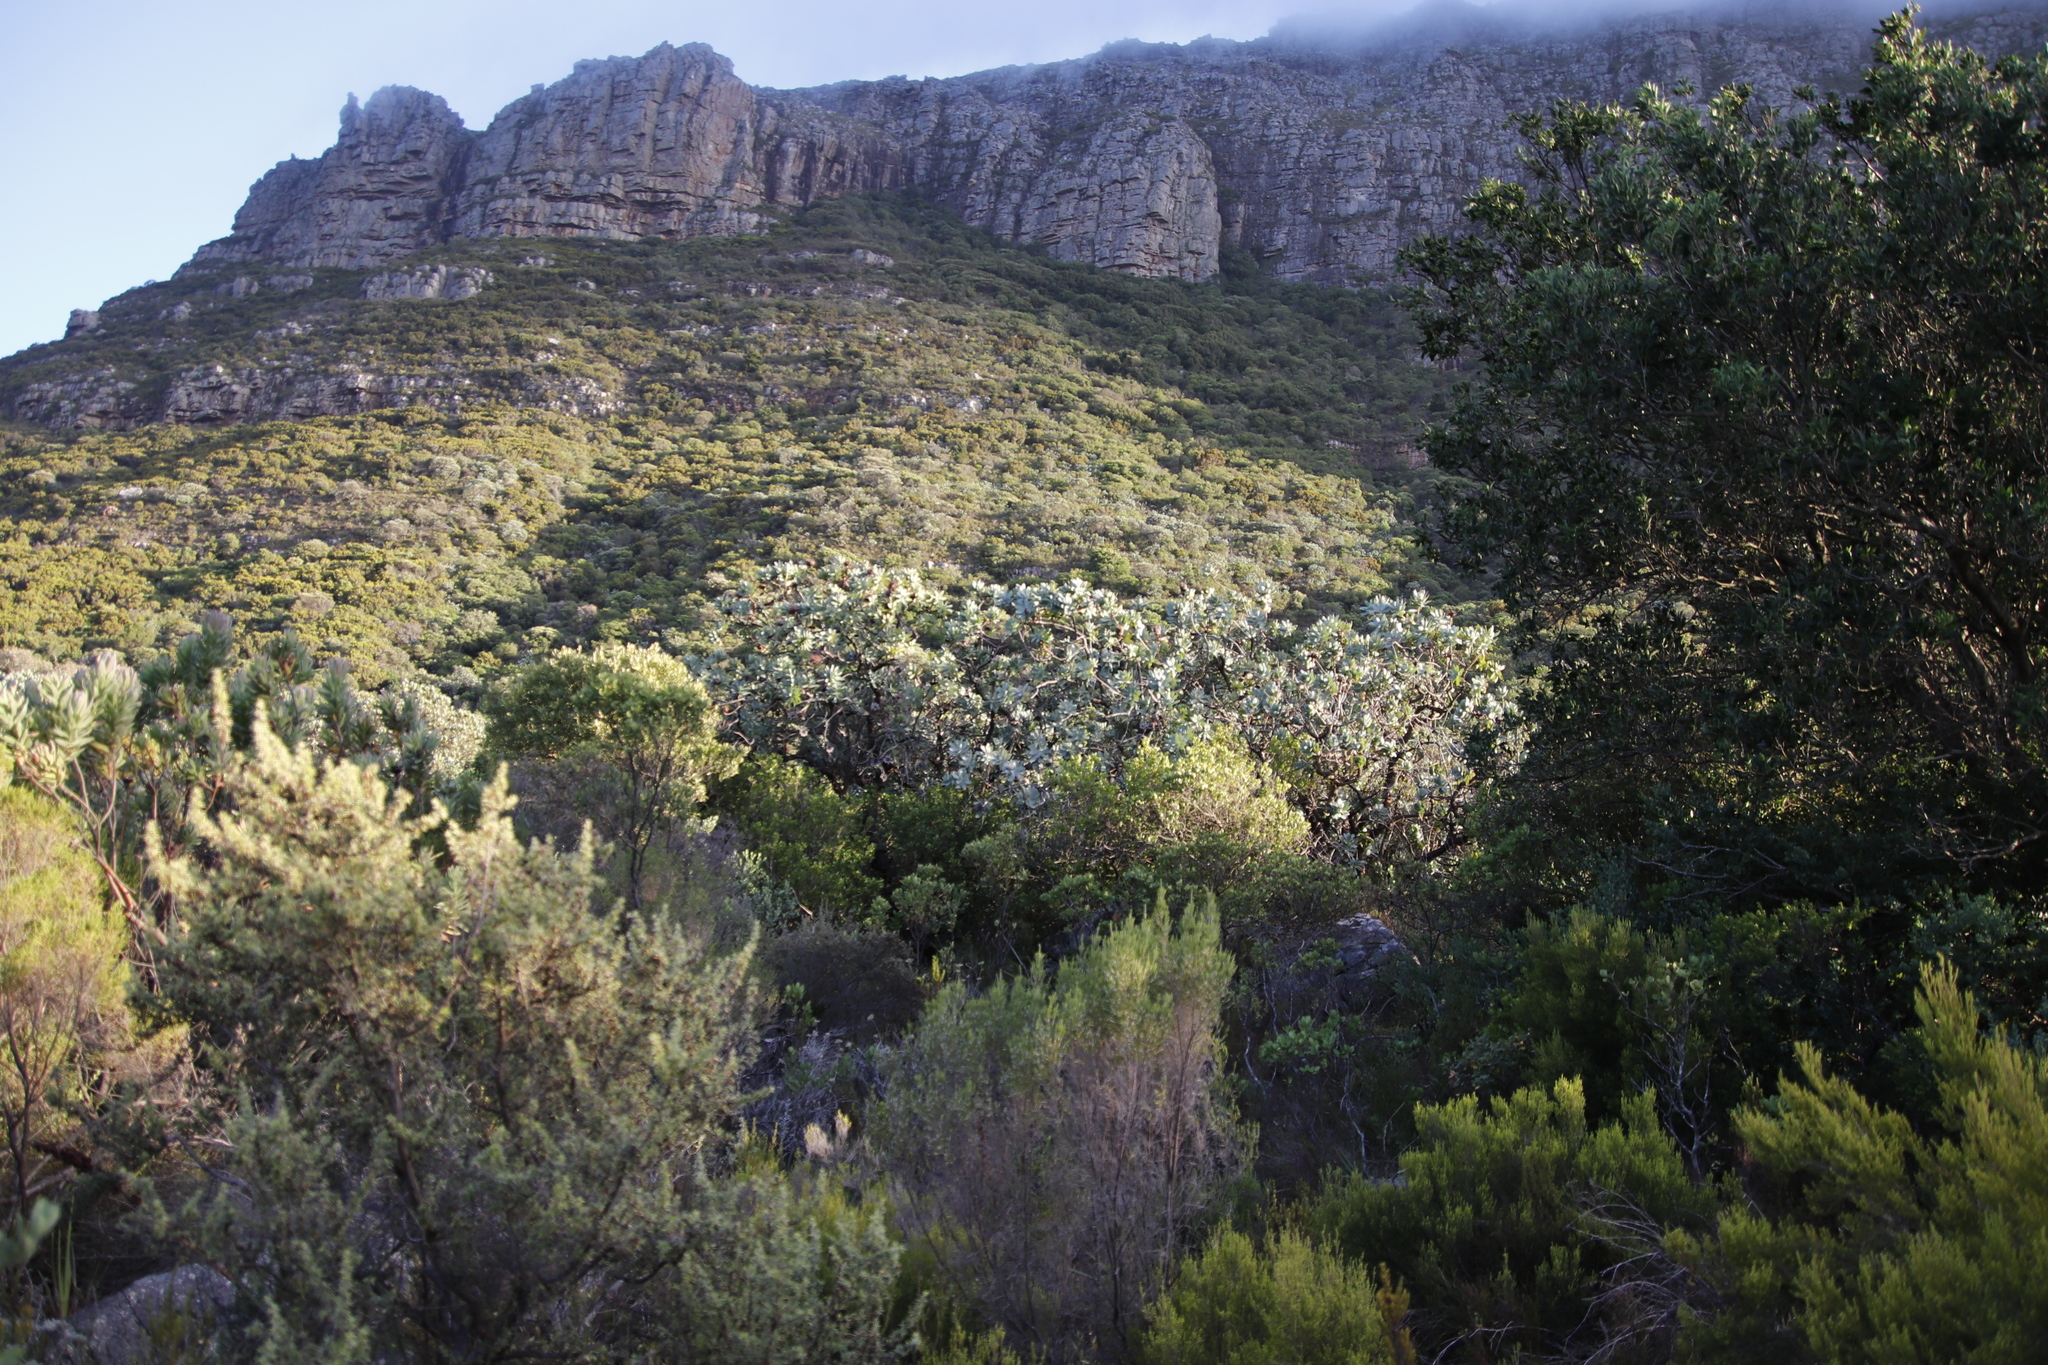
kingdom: Plantae
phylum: Tracheophyta
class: Magnoliopsida
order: Proteales
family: Proteaceae
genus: Protea
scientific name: Protea nitida
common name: Tree protea
